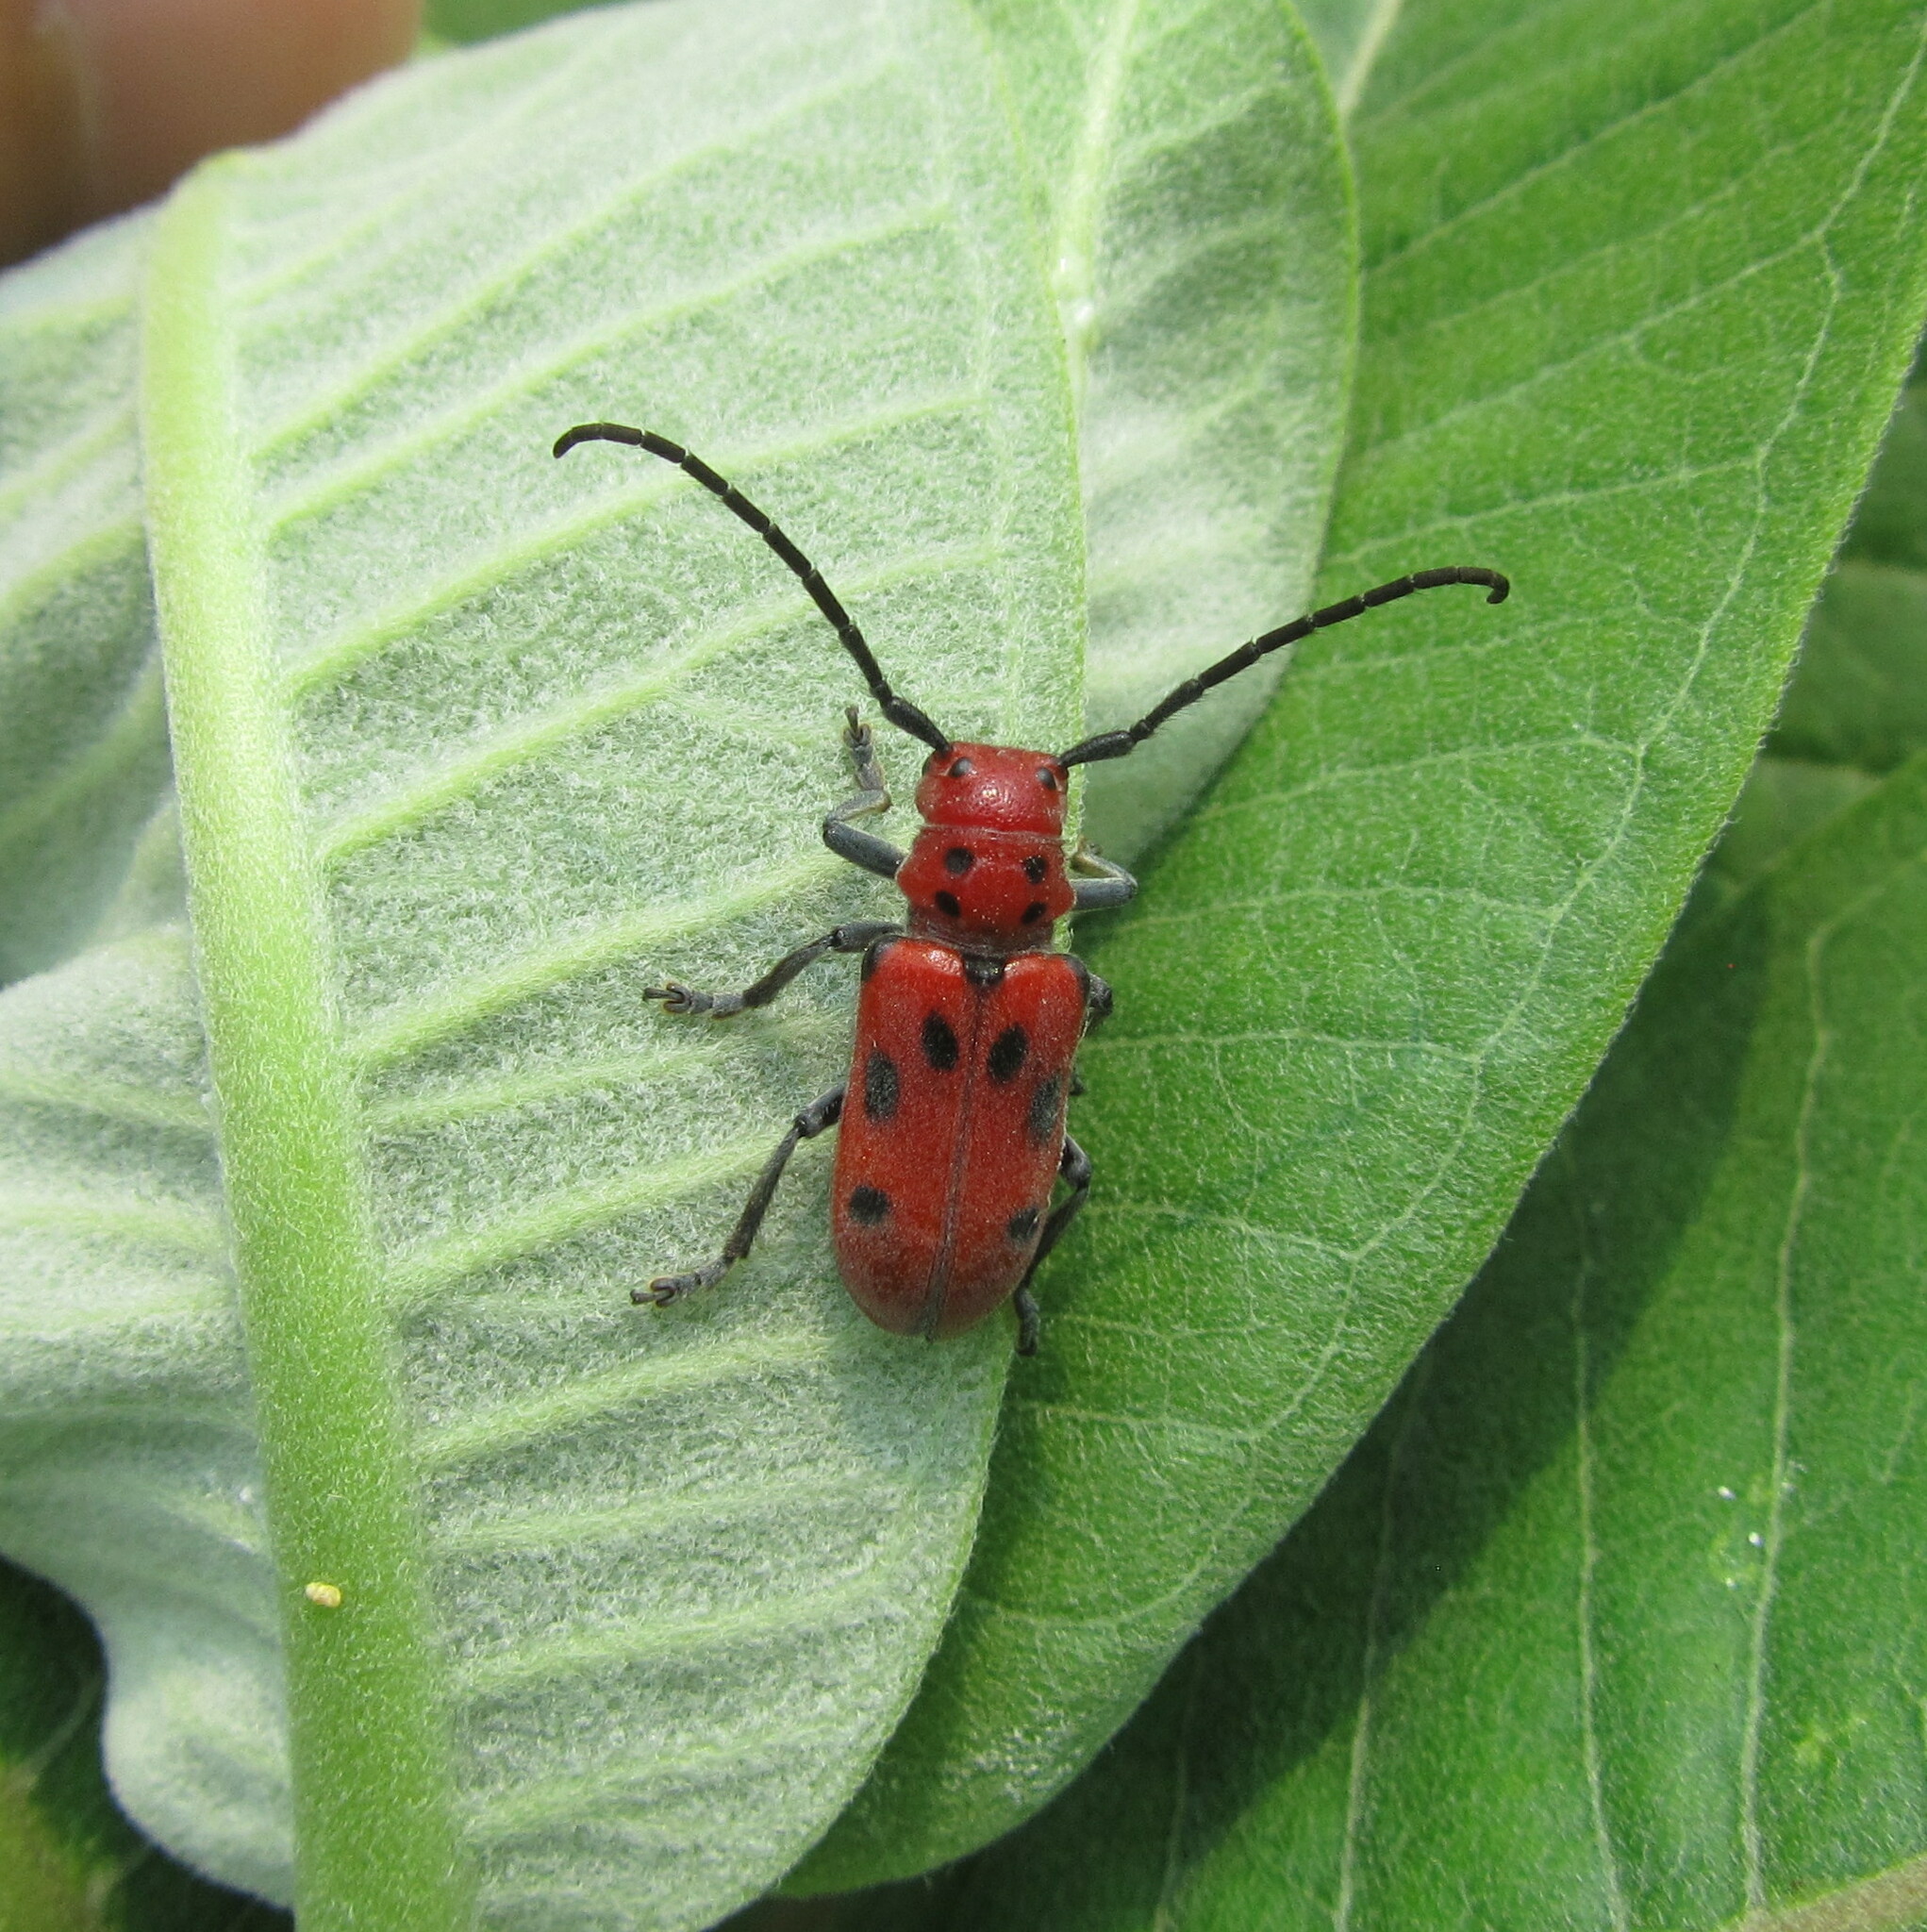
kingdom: Animalia
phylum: Arthropoda
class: Insecta
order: Coleoptera
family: Cerambycidae
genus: Tetraopes
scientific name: Tetraopes tetrophthalmus
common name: Red milkweed beetle
